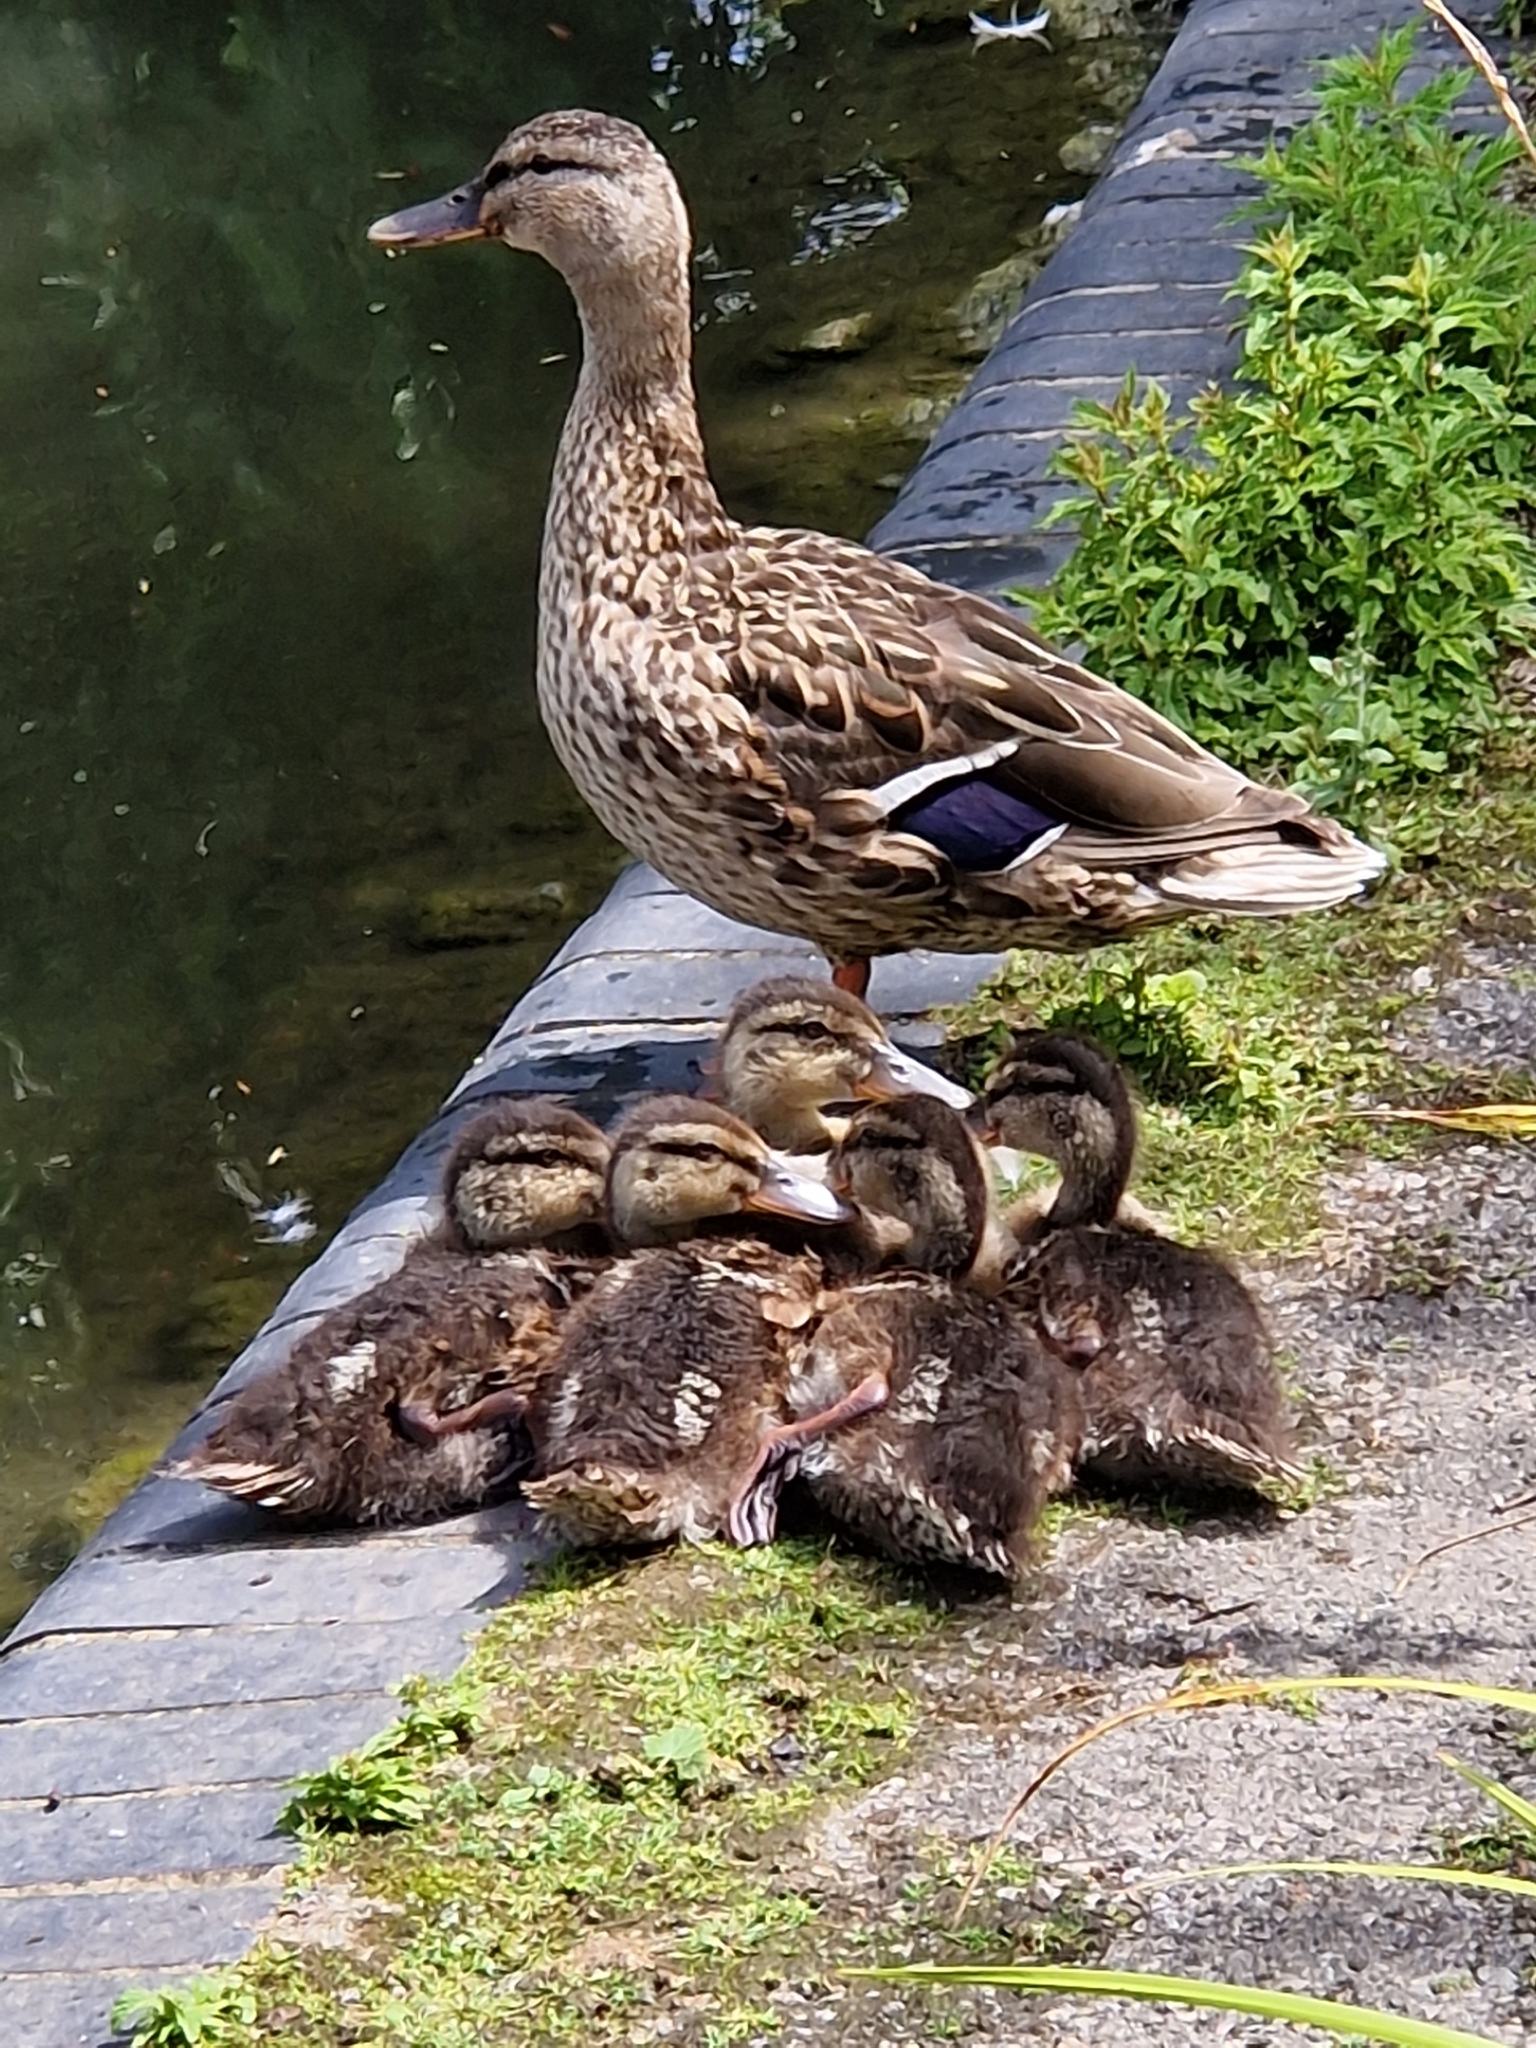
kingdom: Animalia
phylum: Chordata
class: Aves
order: Anseriformes
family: Anatidae
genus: Anas
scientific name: Anas platyrhynchos
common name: Mallard
